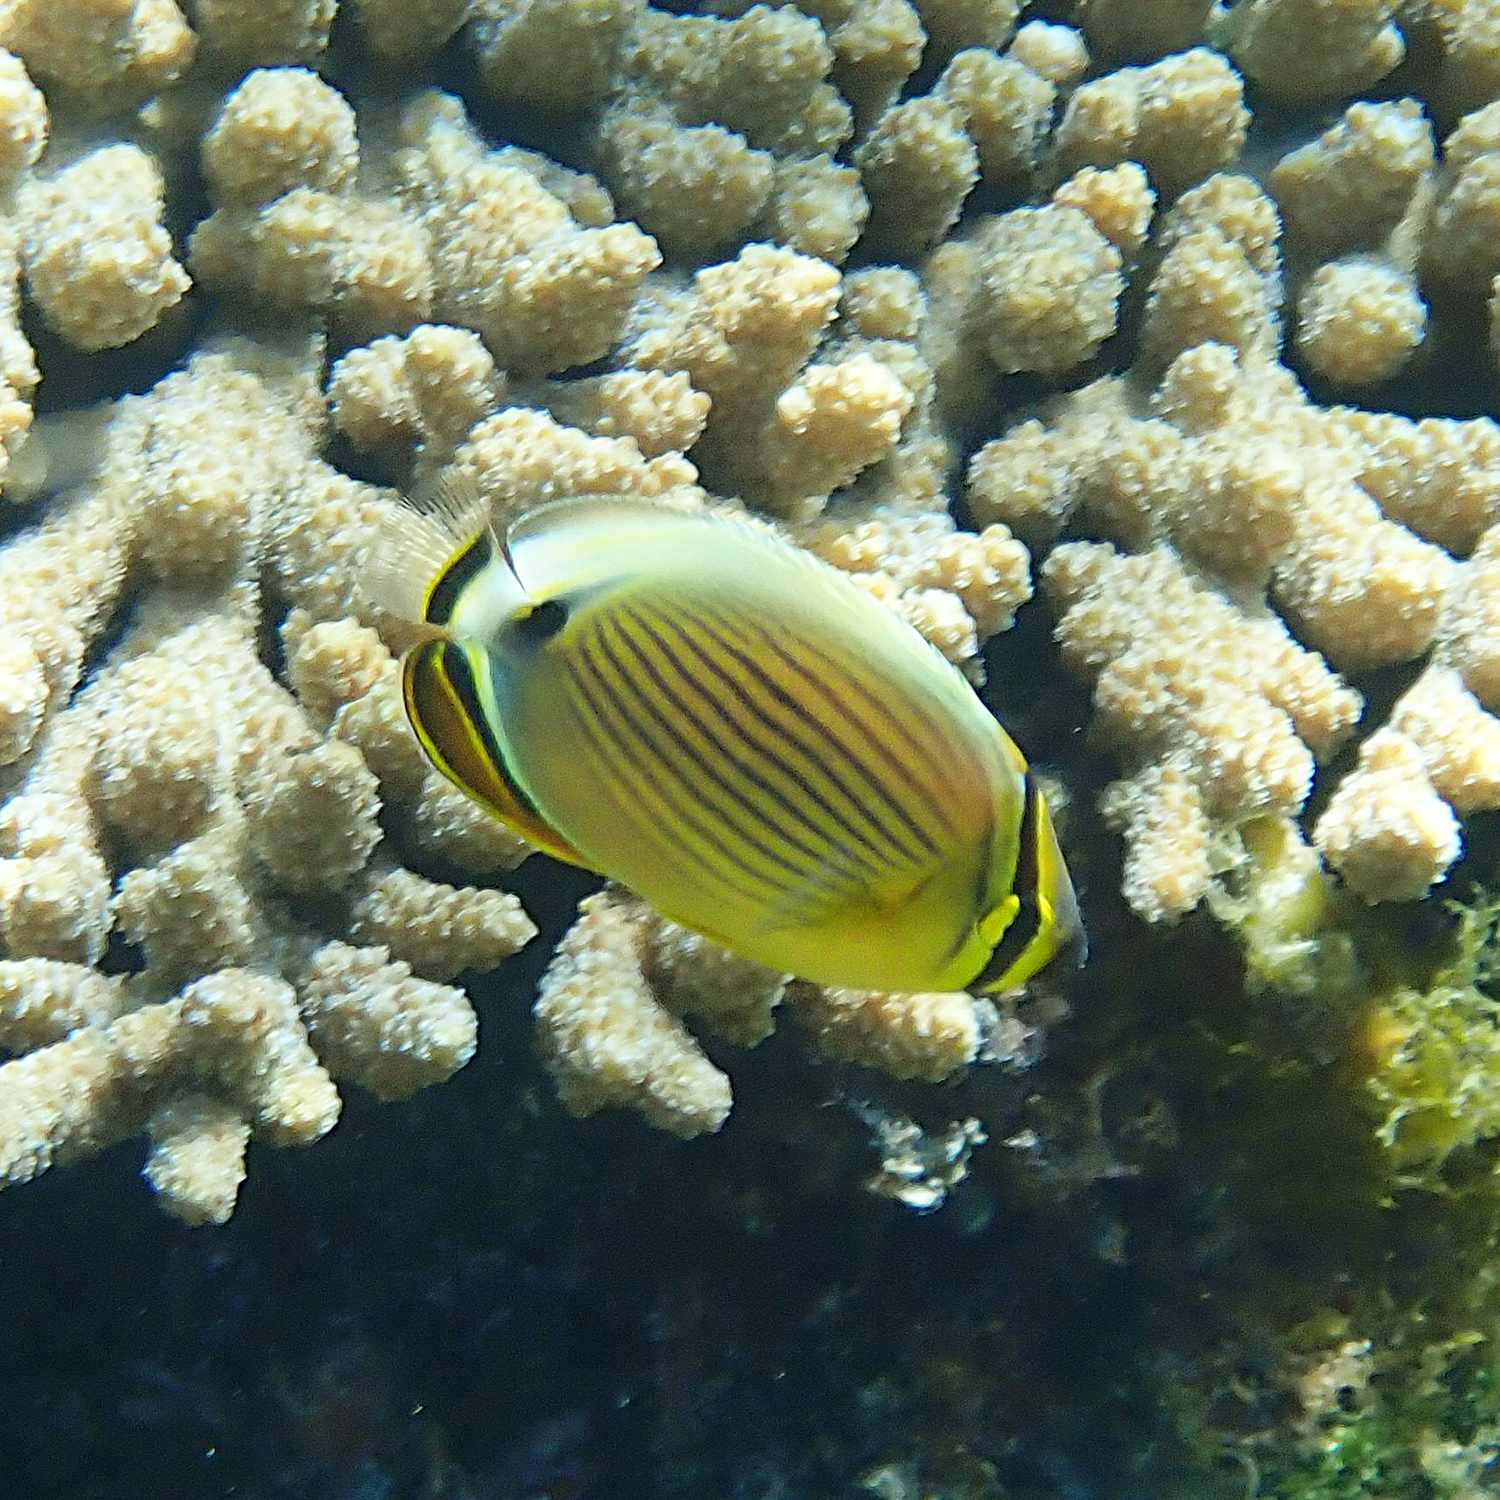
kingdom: Animalia
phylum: Chordata
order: Perciformes
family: Chaetodontidae
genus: Chaetodon
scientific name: Chaetodon lunulatus
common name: Redfin butterflyfish
